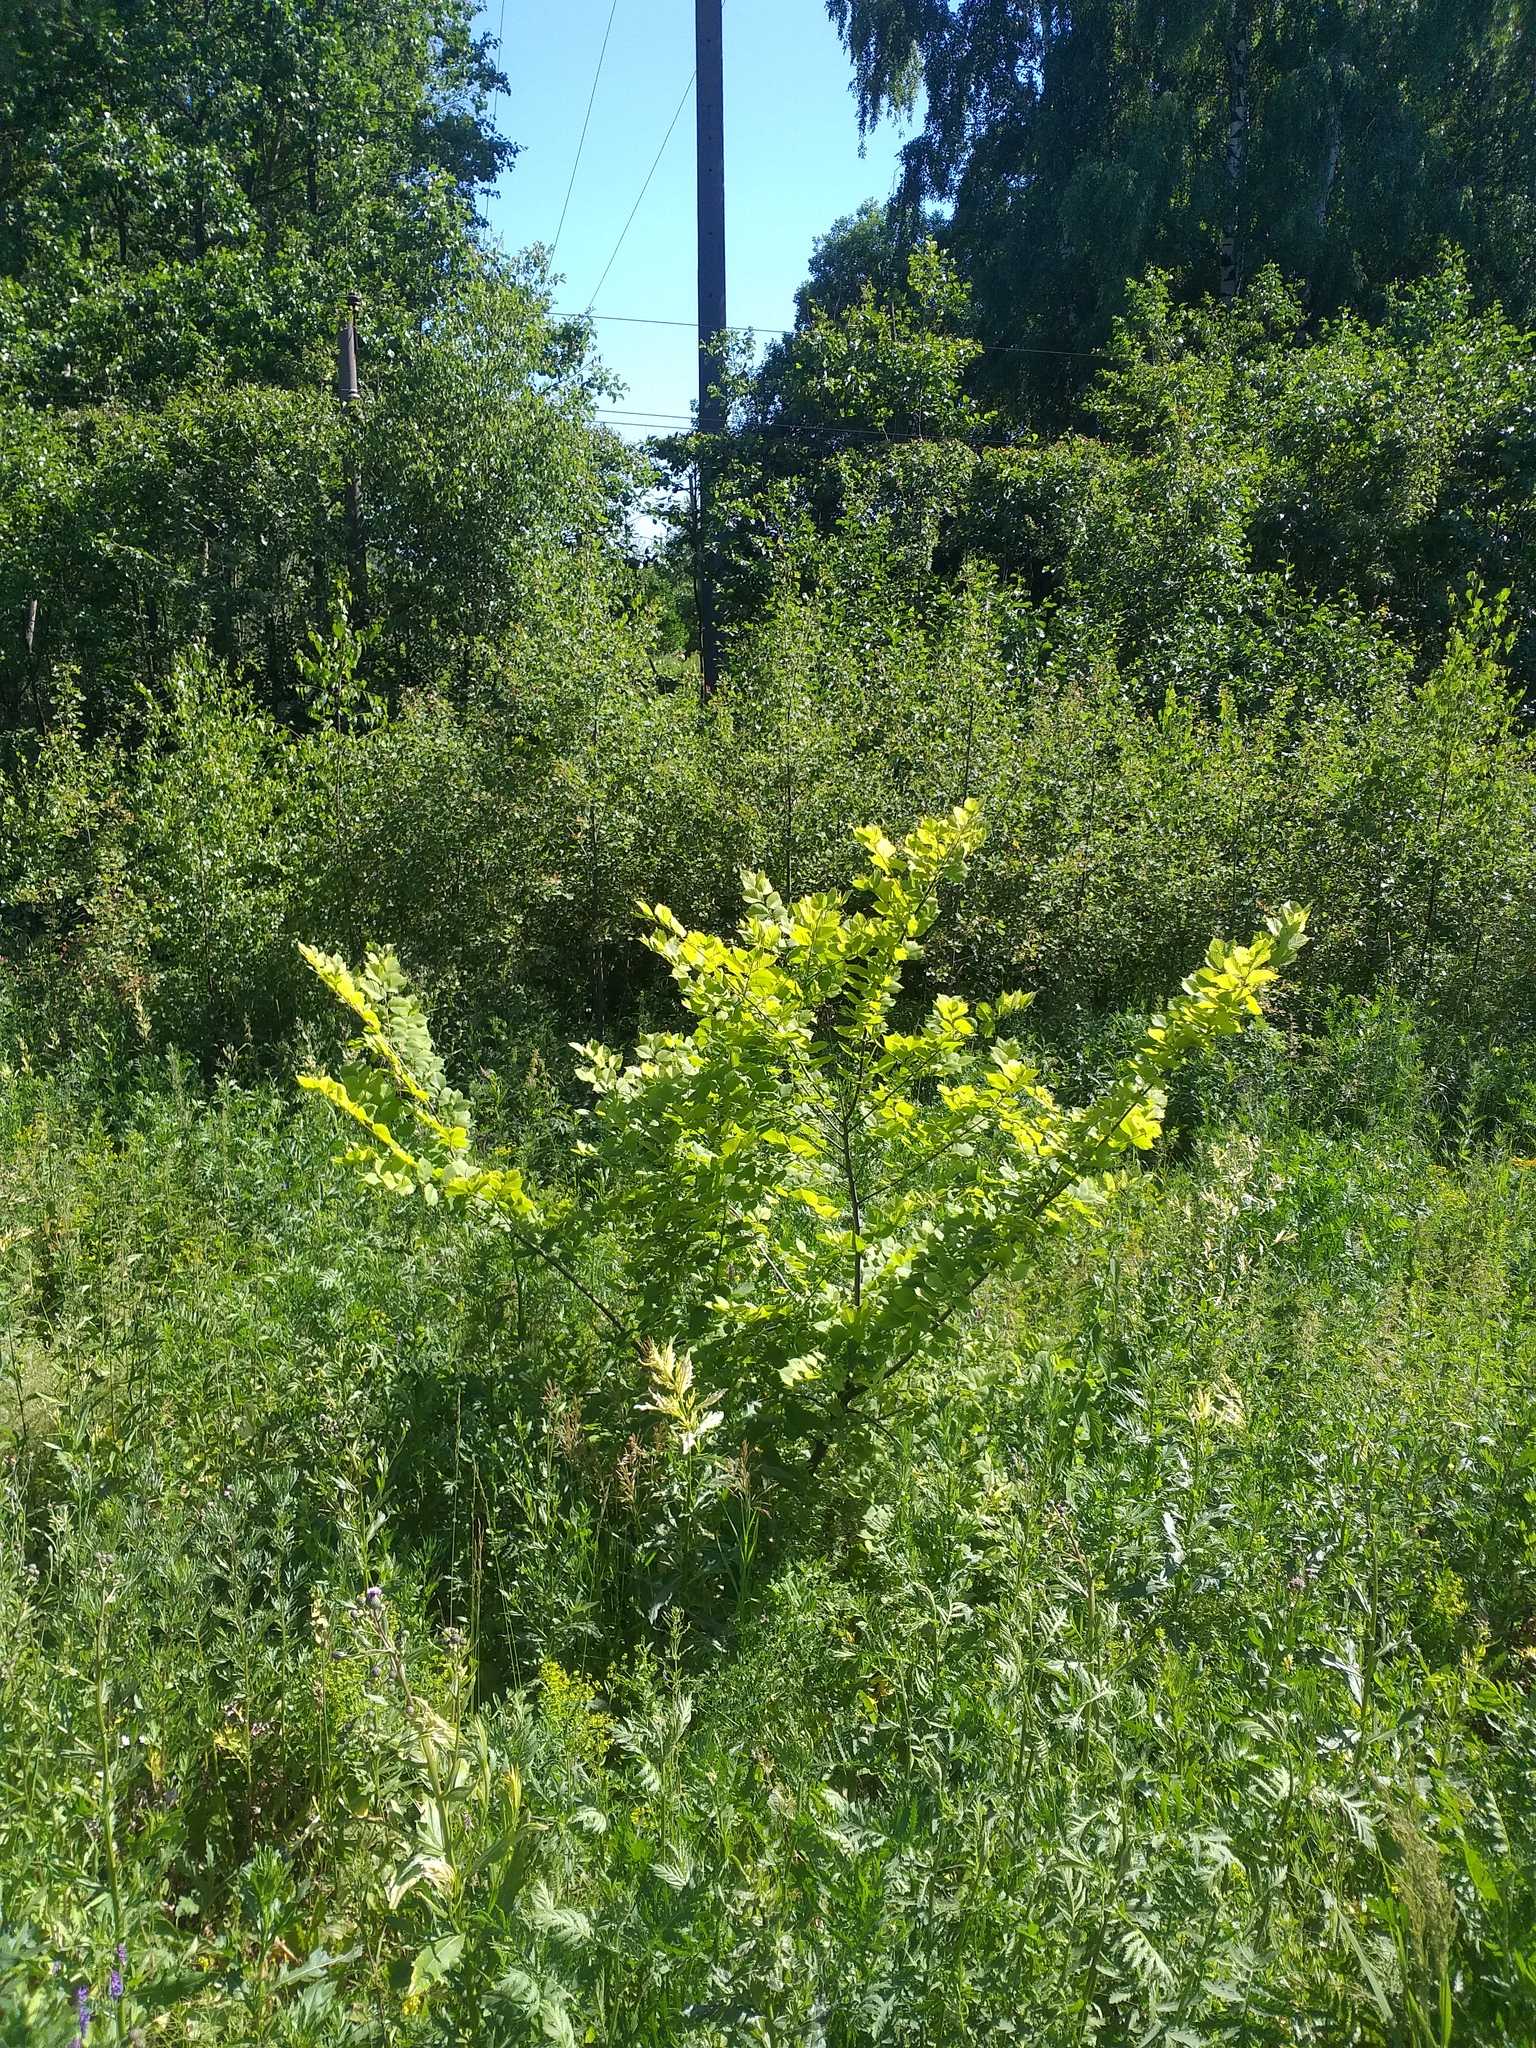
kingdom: Plantae
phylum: Tracheophyta
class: Magnoliopsida
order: Rosales
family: Ulmaceae
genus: Ulmus
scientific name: Ulmus laevis
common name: European white-elm
